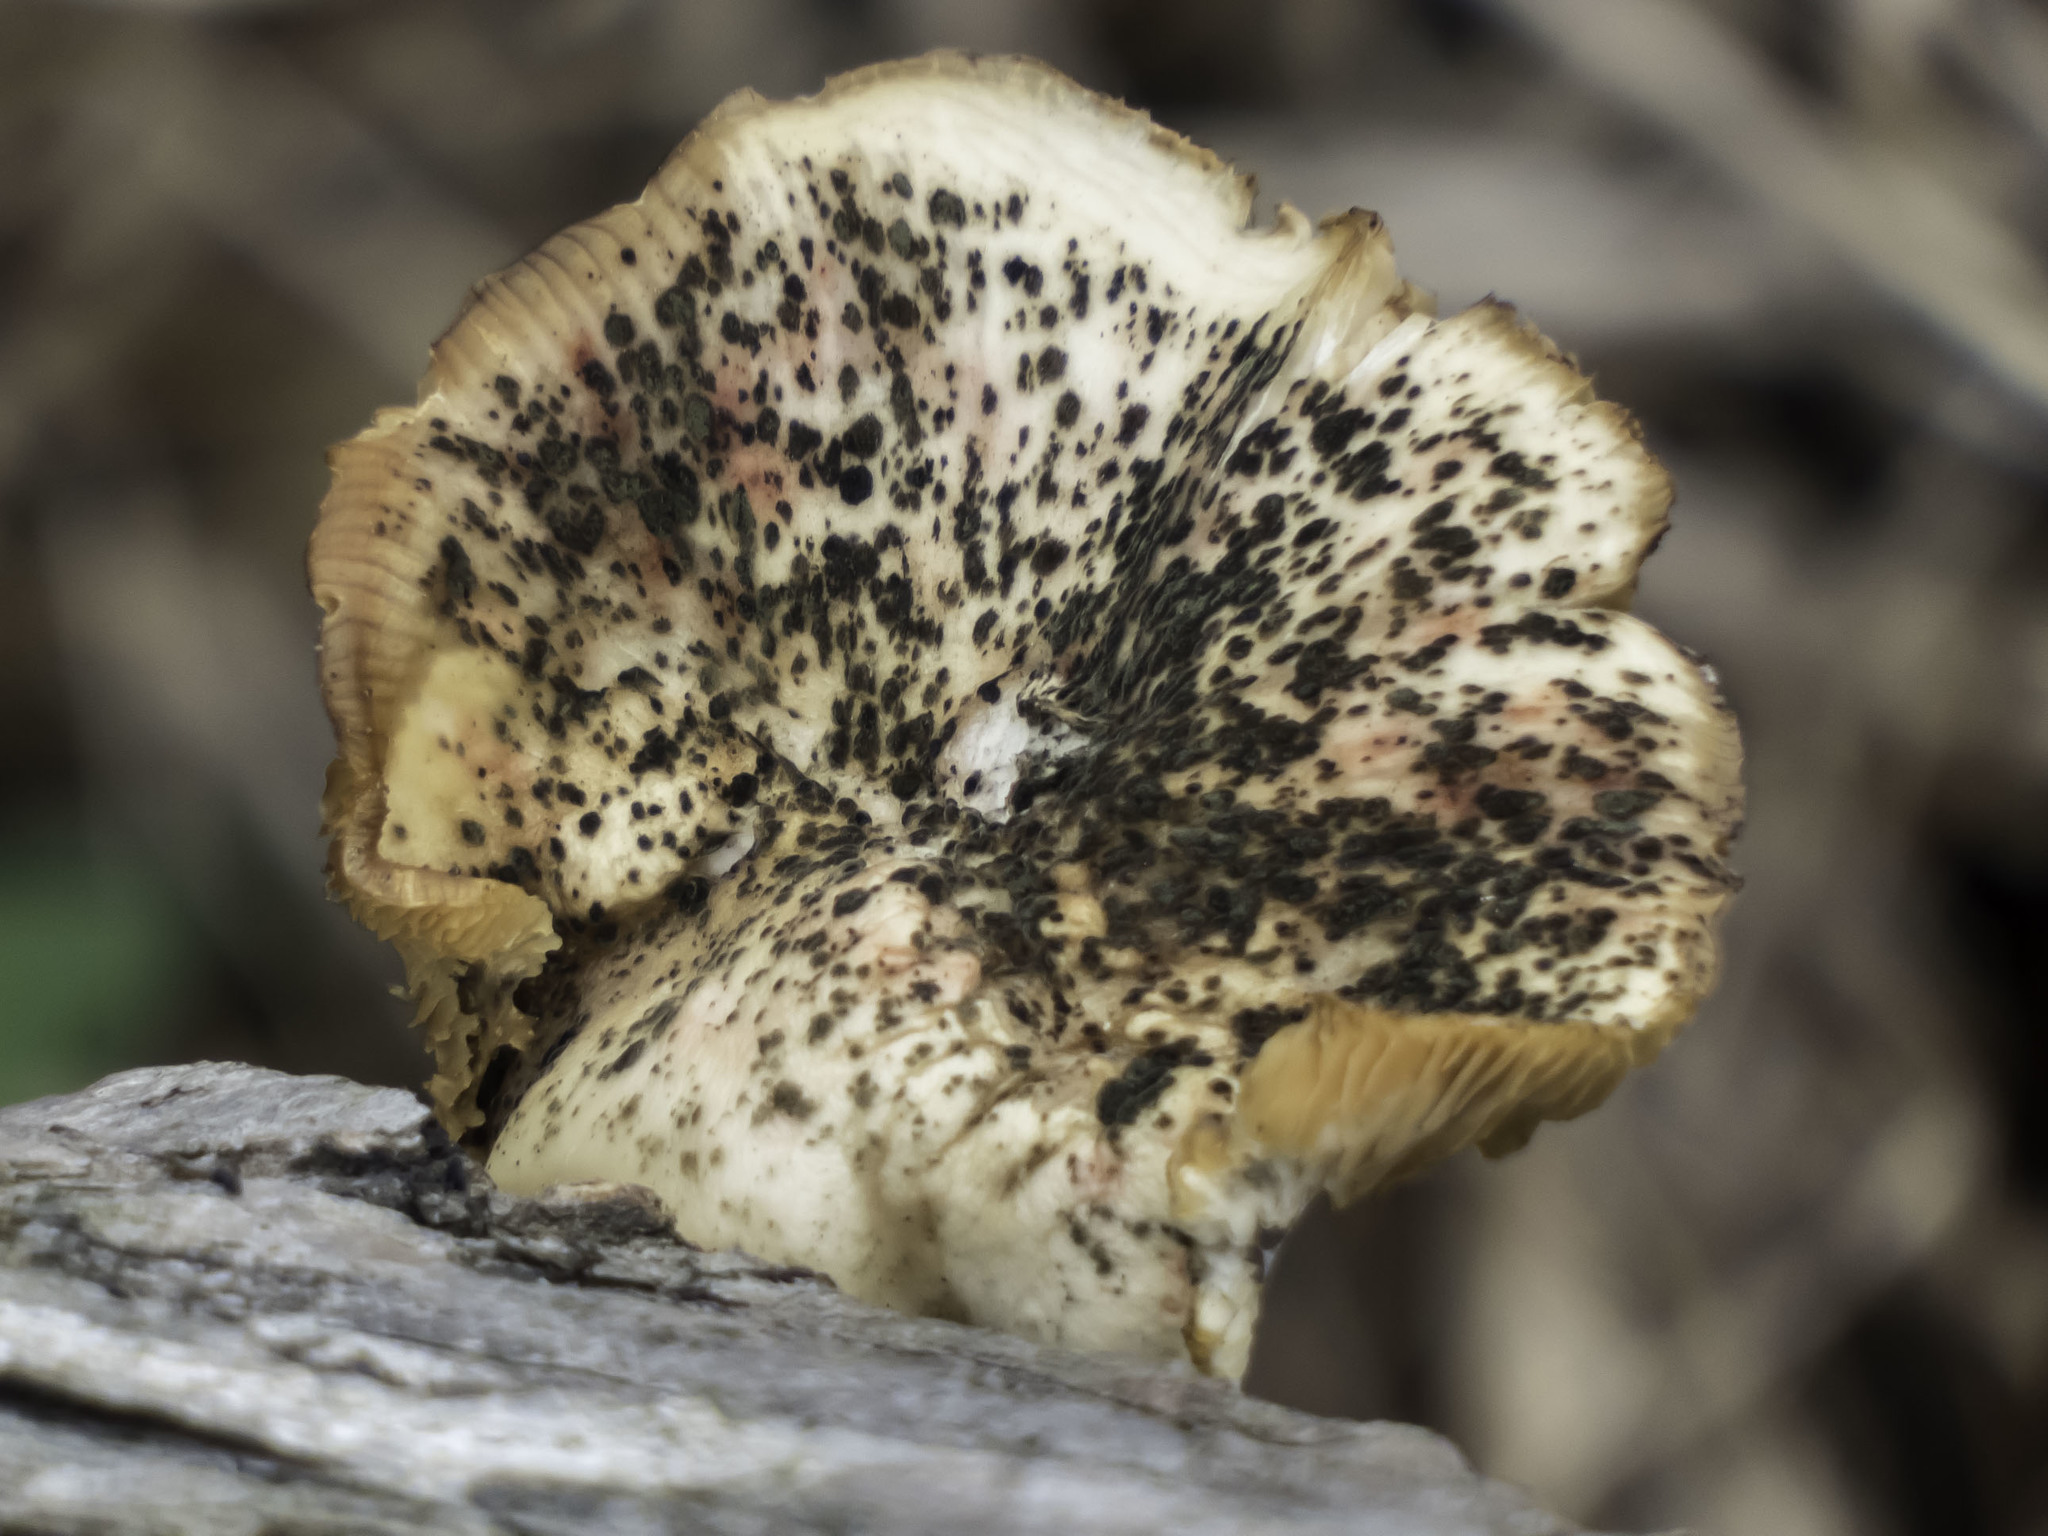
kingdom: Fungi
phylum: Basidiomycota
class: Agaricomycetes
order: Polyporales
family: Polyporaceae
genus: Cerioporus
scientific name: Cerioporus squamosus
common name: Dryad's saddle
